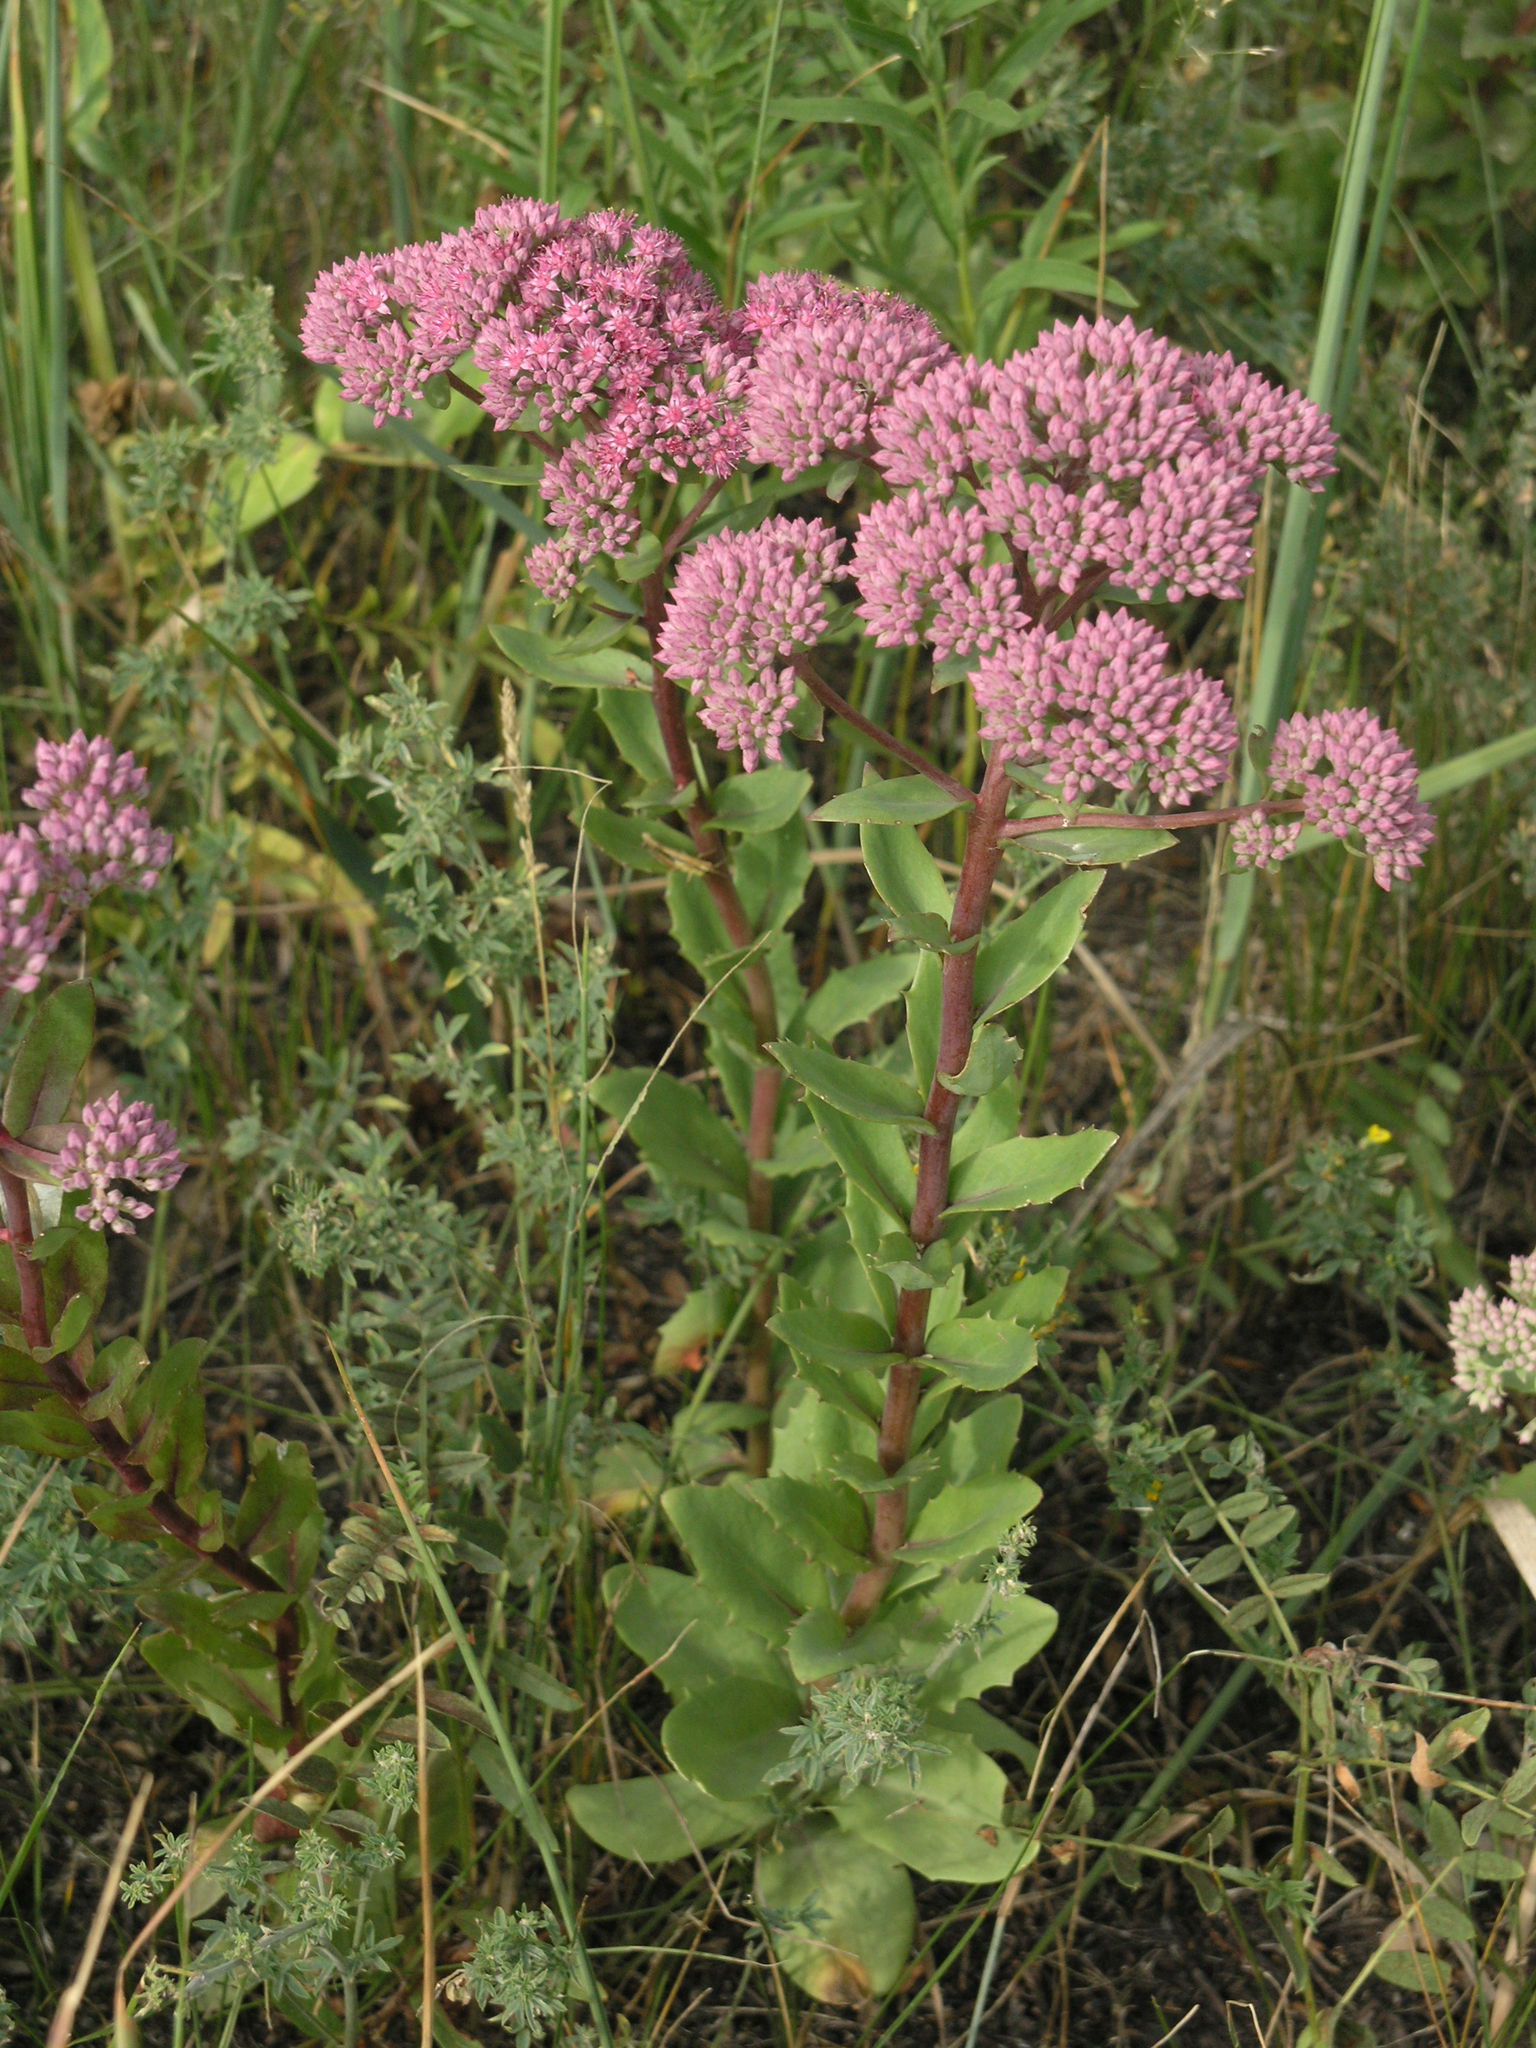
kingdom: Plantae
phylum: Tracheophyta
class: Magnoliopsida
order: Saxifragales
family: Crassulaceae
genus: Hylotelephium
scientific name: Hylotelephium telephium
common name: Live-forever
